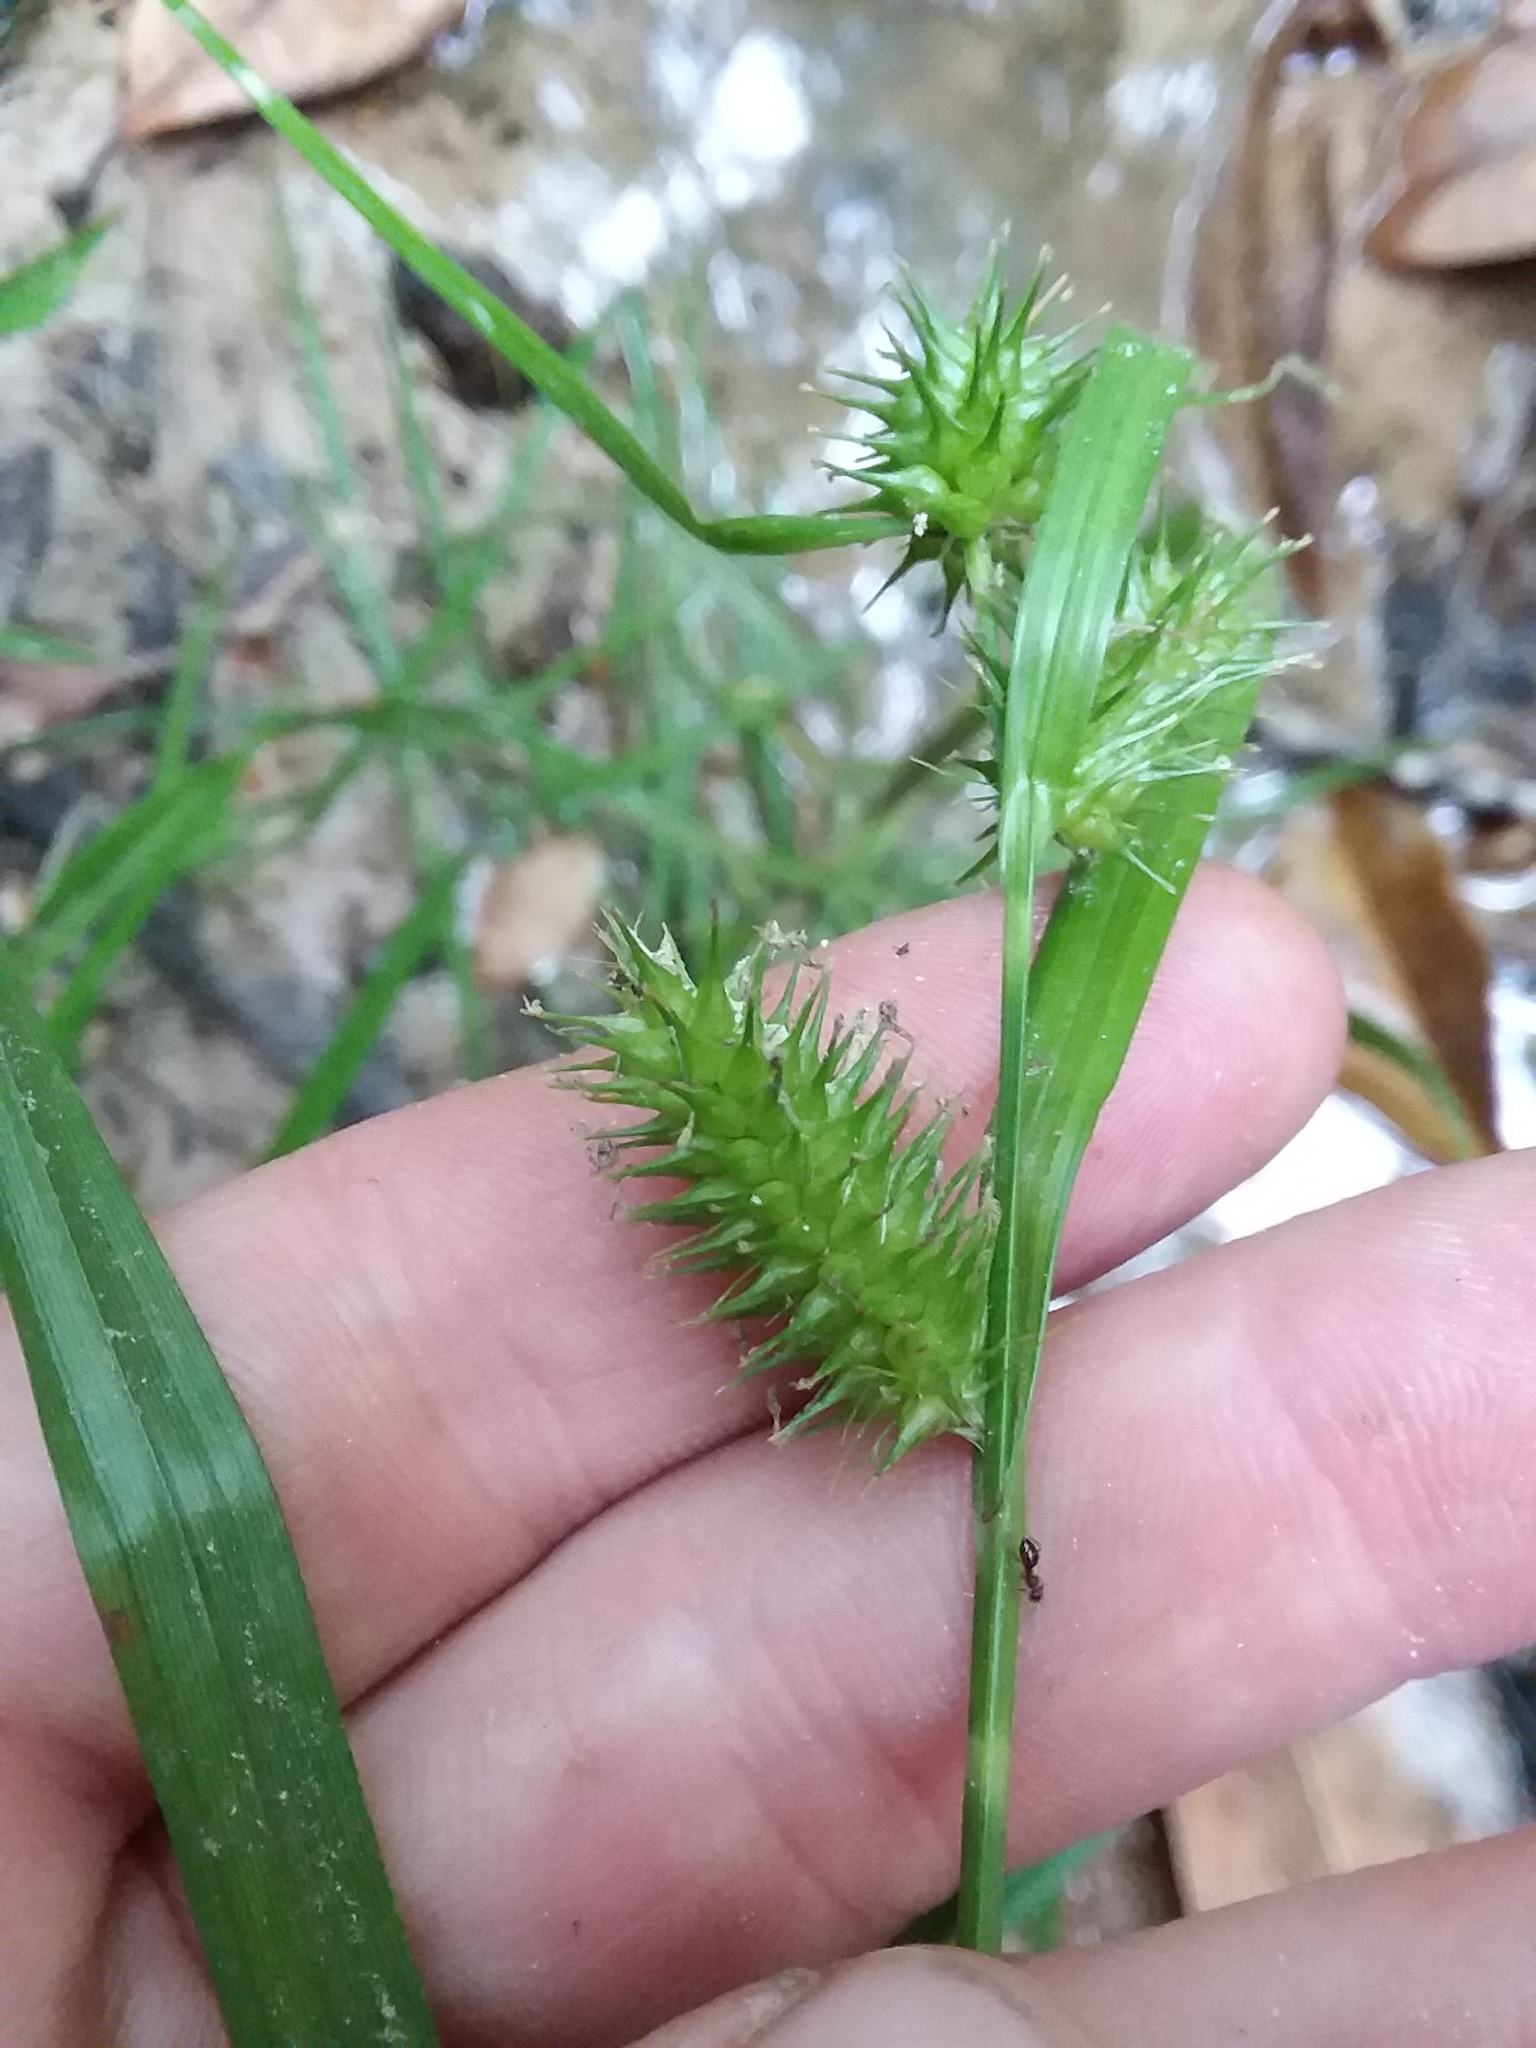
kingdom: Plantae
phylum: Tracheophyta
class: Liliopsida
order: Poales
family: Cyperaceae
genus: Carex
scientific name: Carex lurida
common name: Sallow sedge
